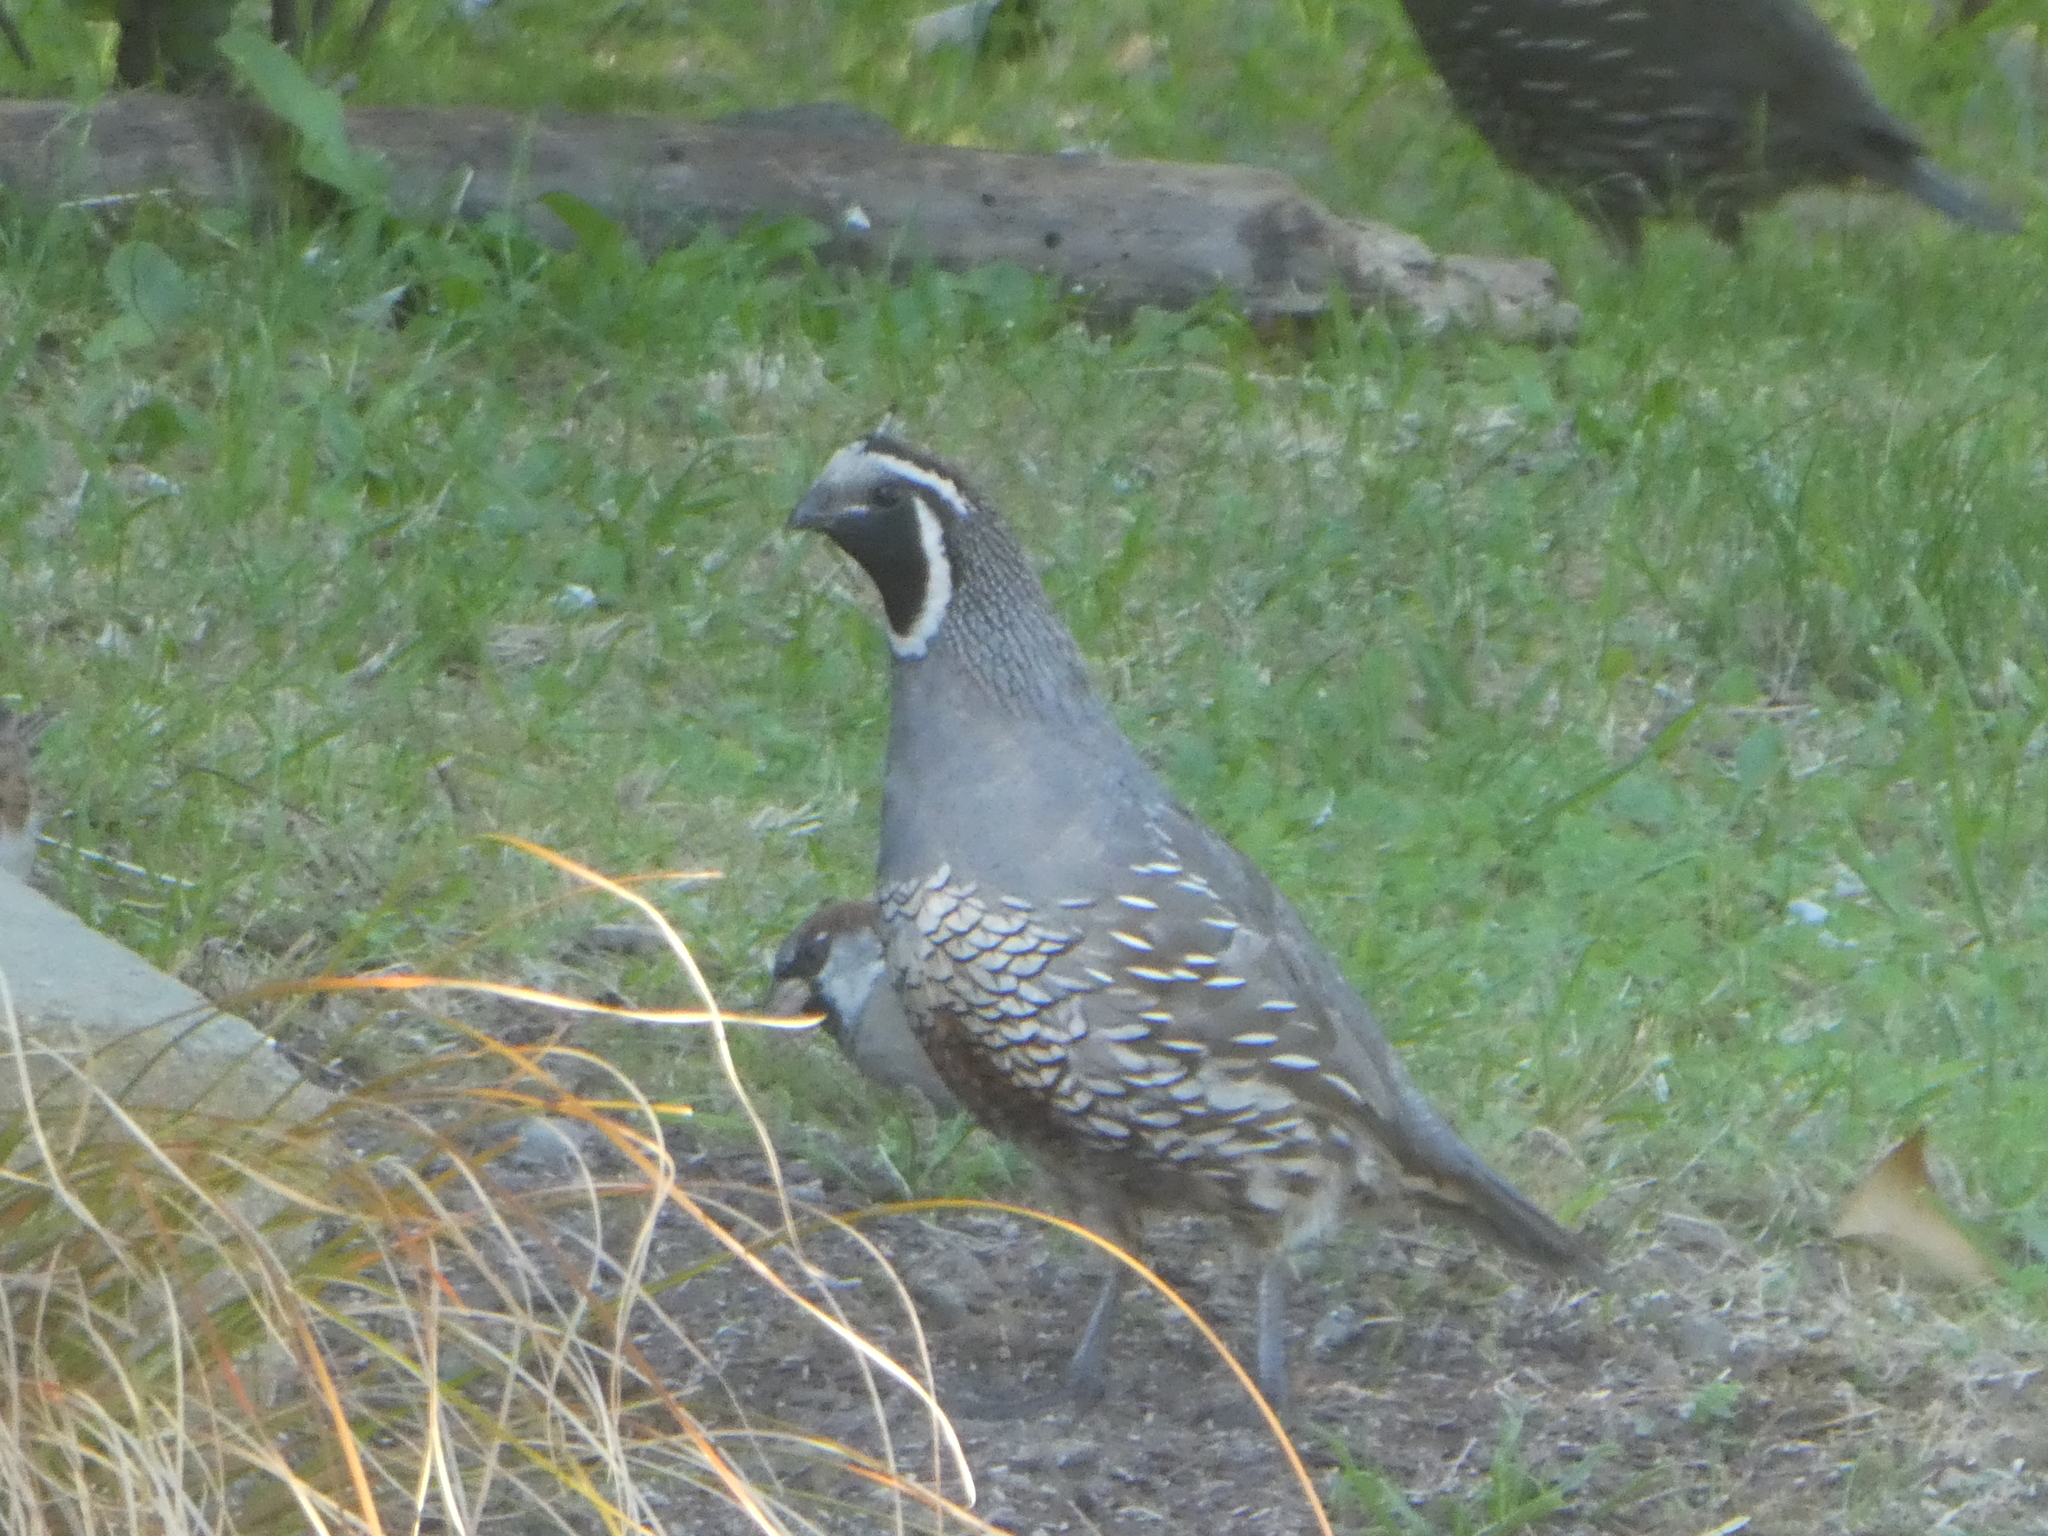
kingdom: Animalia
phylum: Chordata
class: Aves
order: Galliformes
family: Odontophoridae
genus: Callipepla
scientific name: Callipepla californica
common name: California quail
